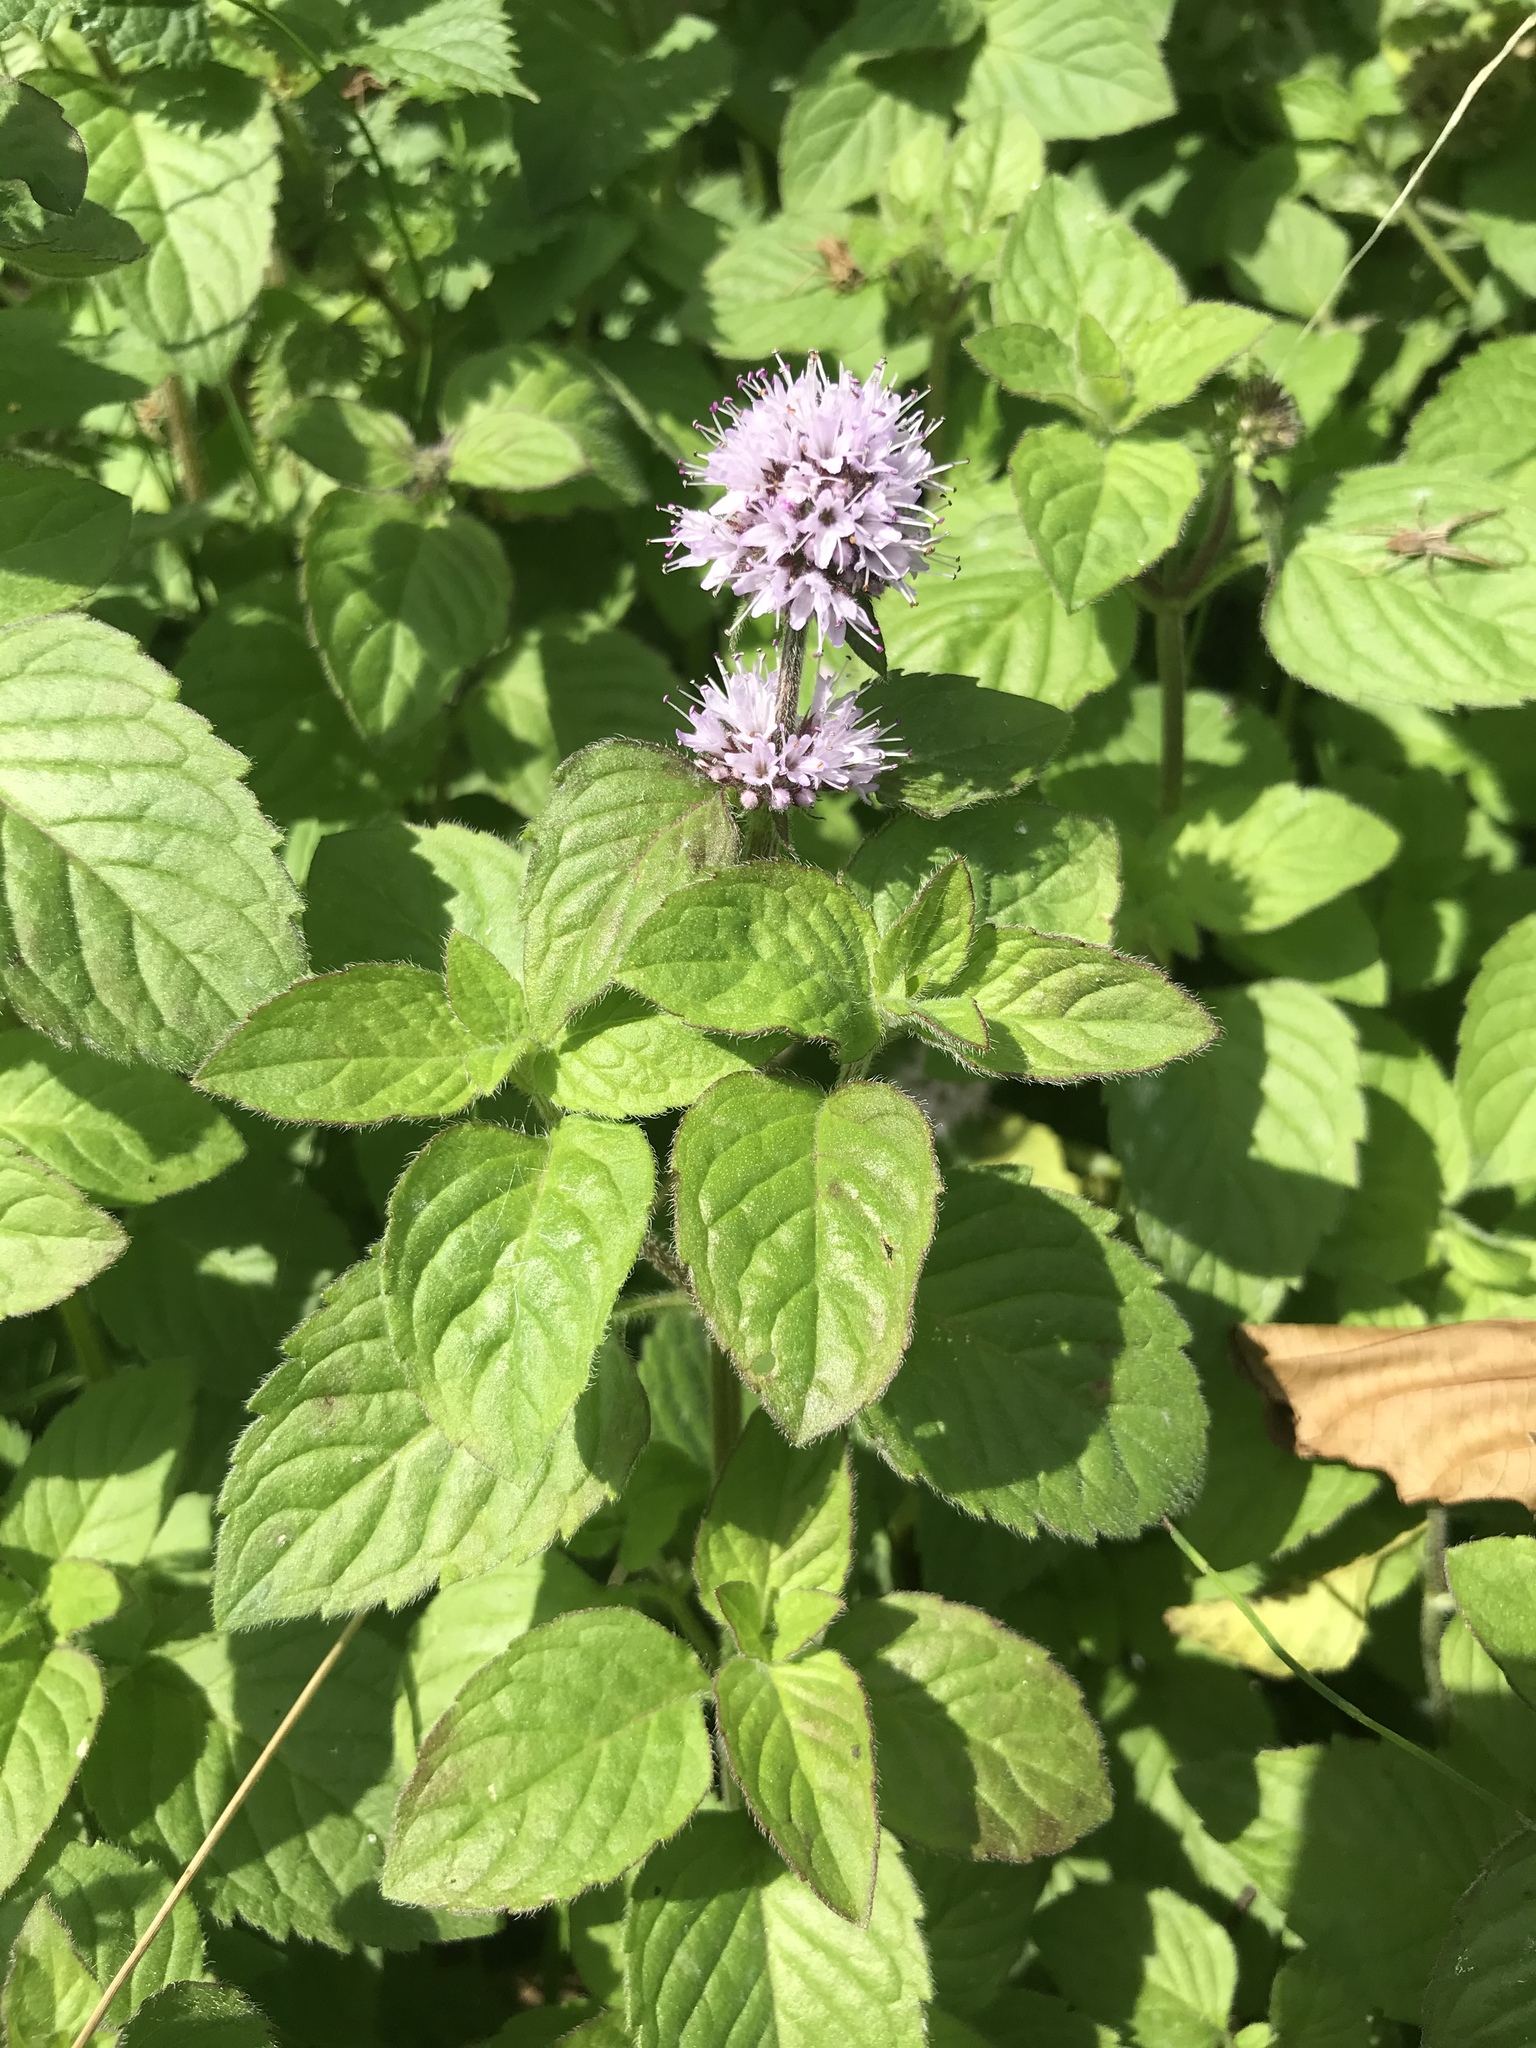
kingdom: Plantae
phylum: Tracheophyta
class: Magnoliopsida
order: Lamiales
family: Lamiaceae
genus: Mentha
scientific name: Mentha aquatica
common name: Water mint
